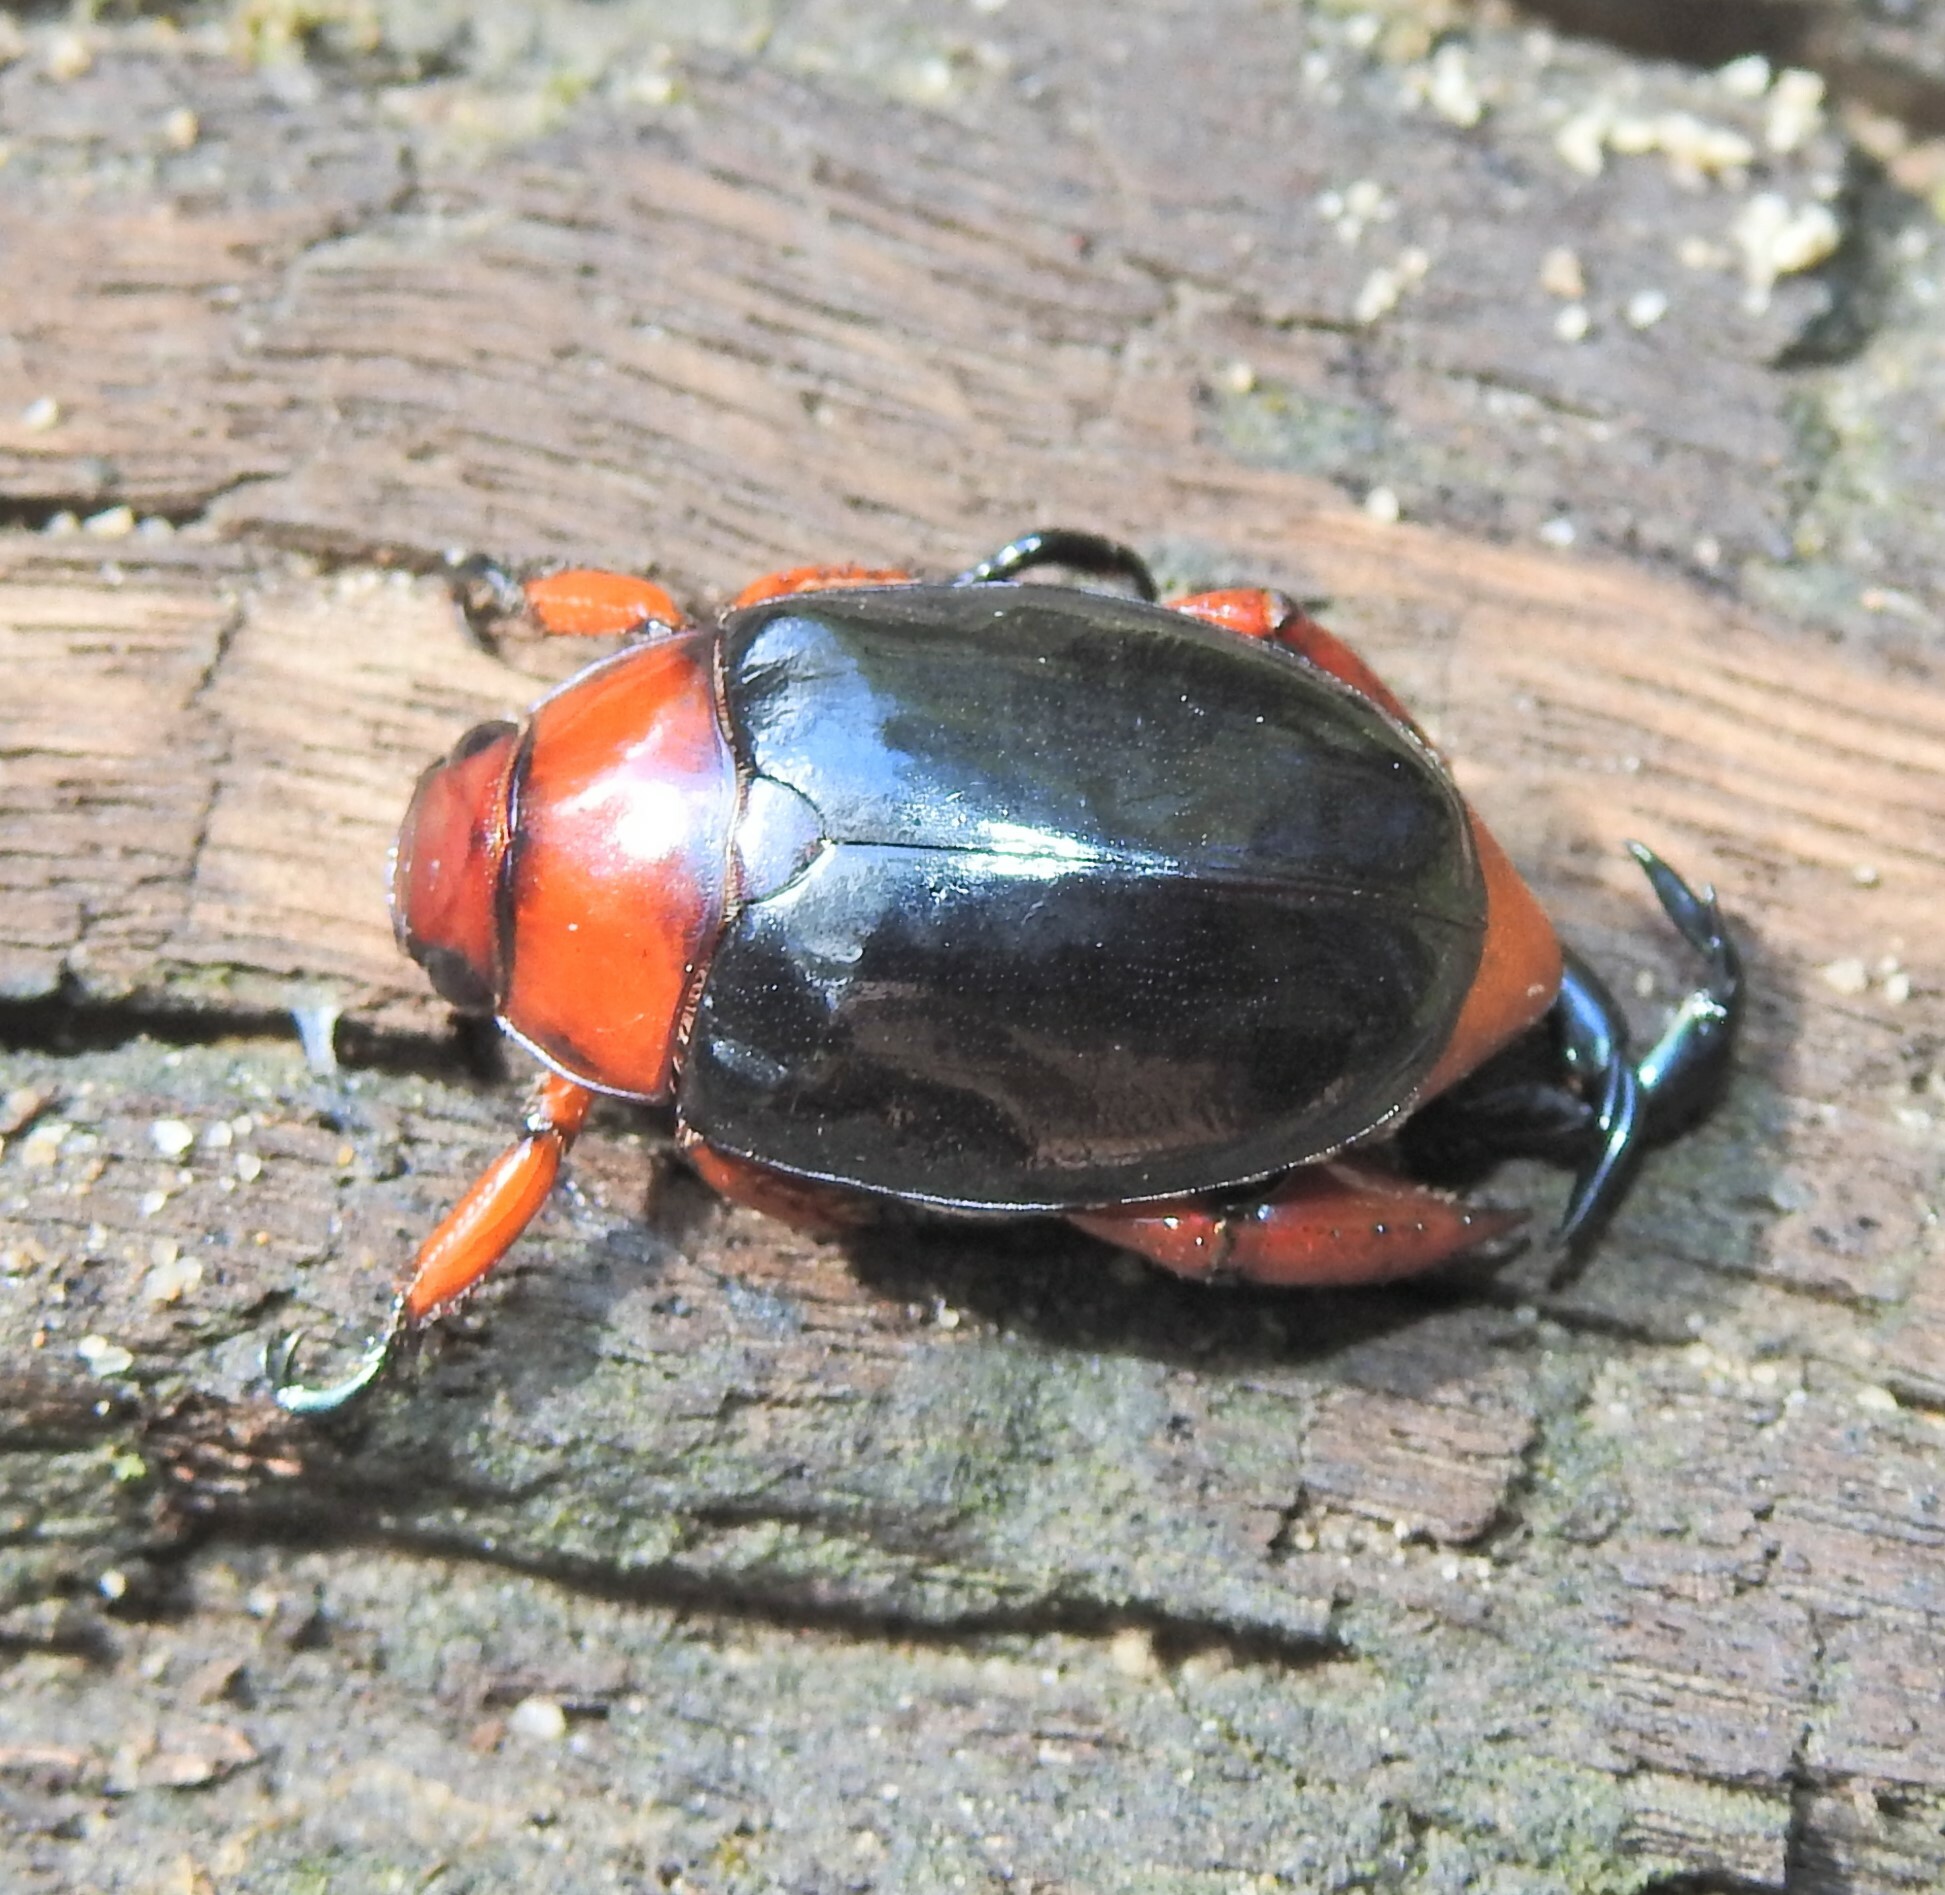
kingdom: Animalia
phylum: Arthropoda
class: Insecta
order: Coleoptera
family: Scarabaeidae
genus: Repsimus
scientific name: Repsimus manicatus
